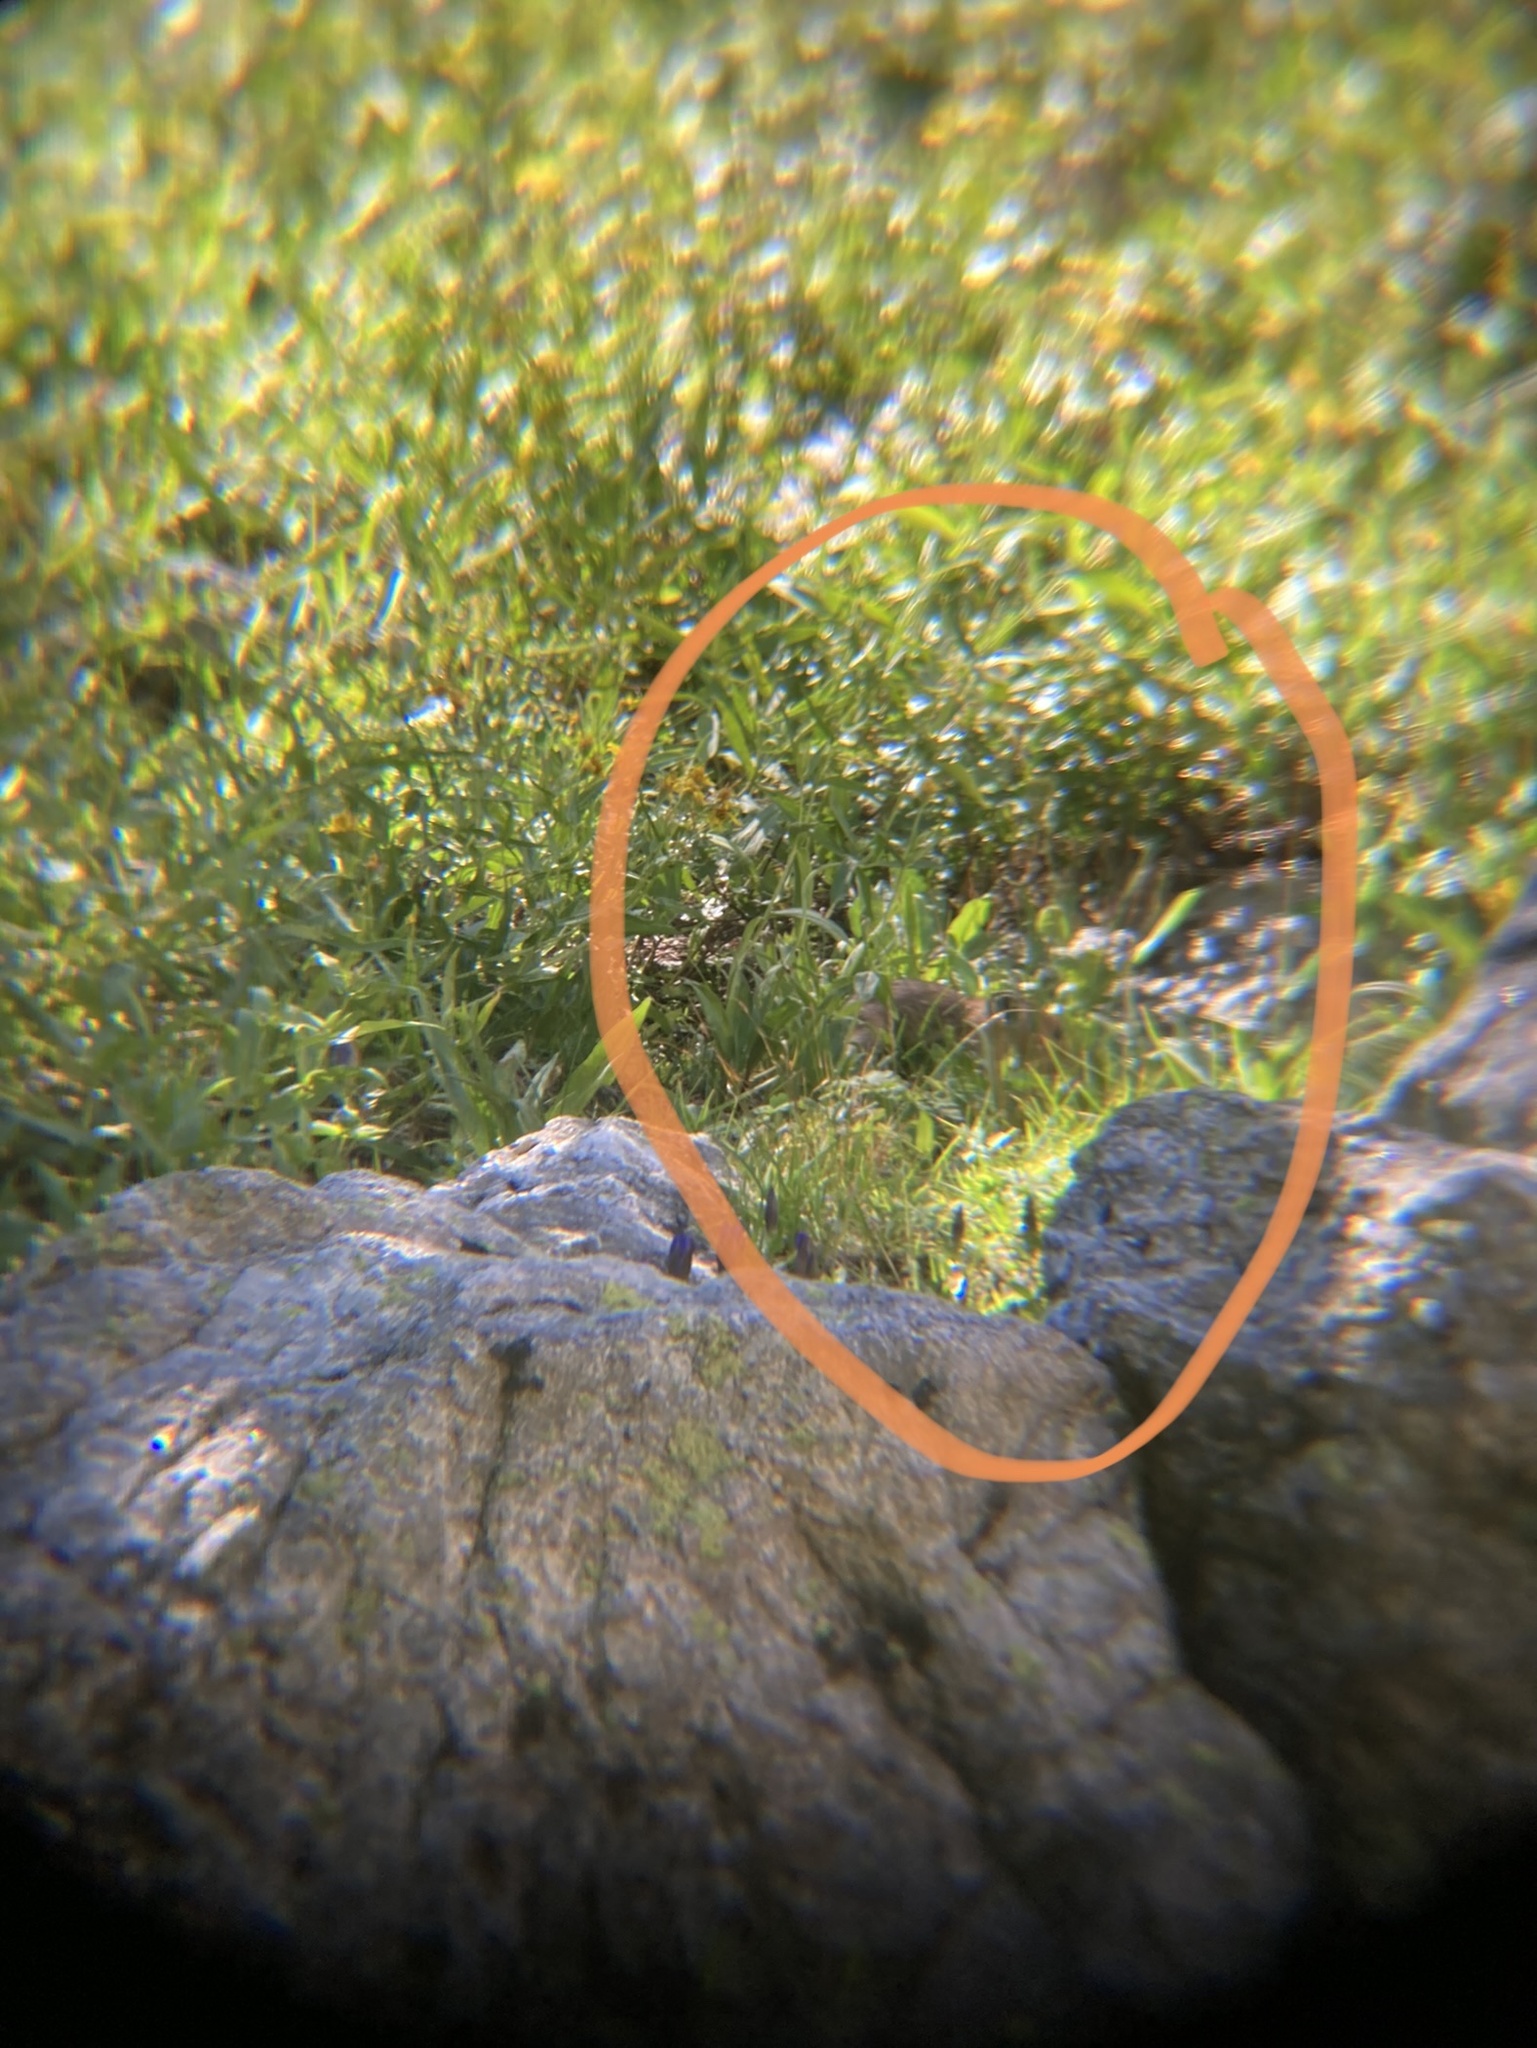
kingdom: Animalia
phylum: Chordata
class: Mammalia
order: Lagomorpha
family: Ochotonidae
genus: Ochotona
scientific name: Ochotona princeps
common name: American pika
